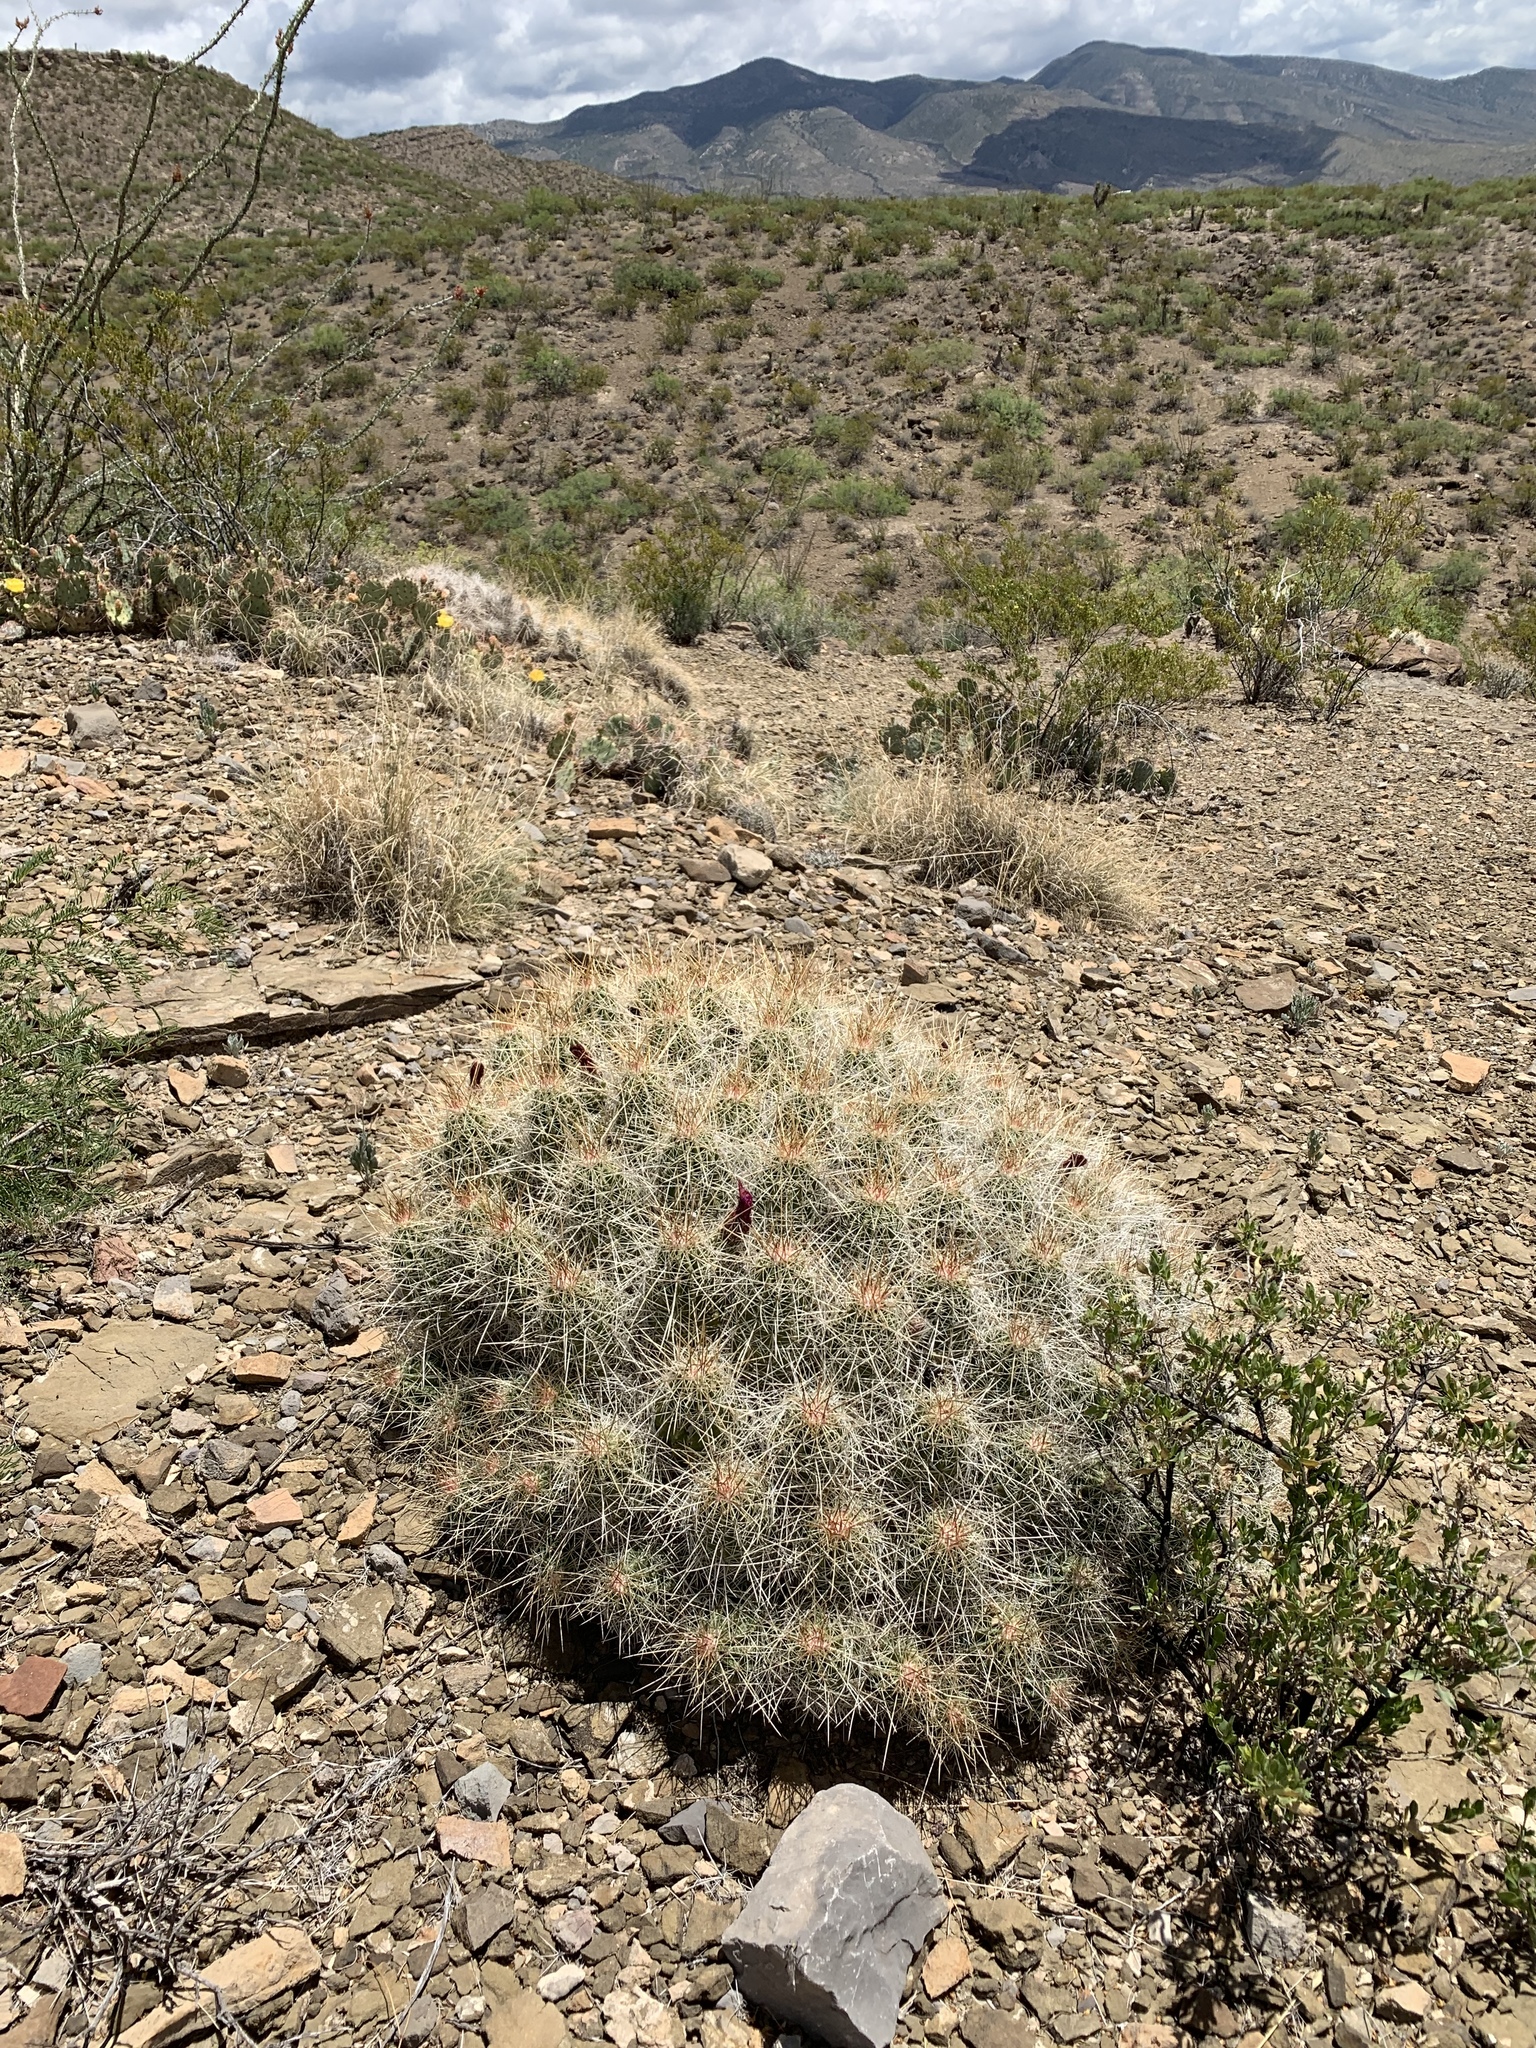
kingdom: Plantae
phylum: Tracheophyta
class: Magnoliopsida
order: Caryophyllales
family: Cactaceae
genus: Echinocereus
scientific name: Echinocereus stramineus
